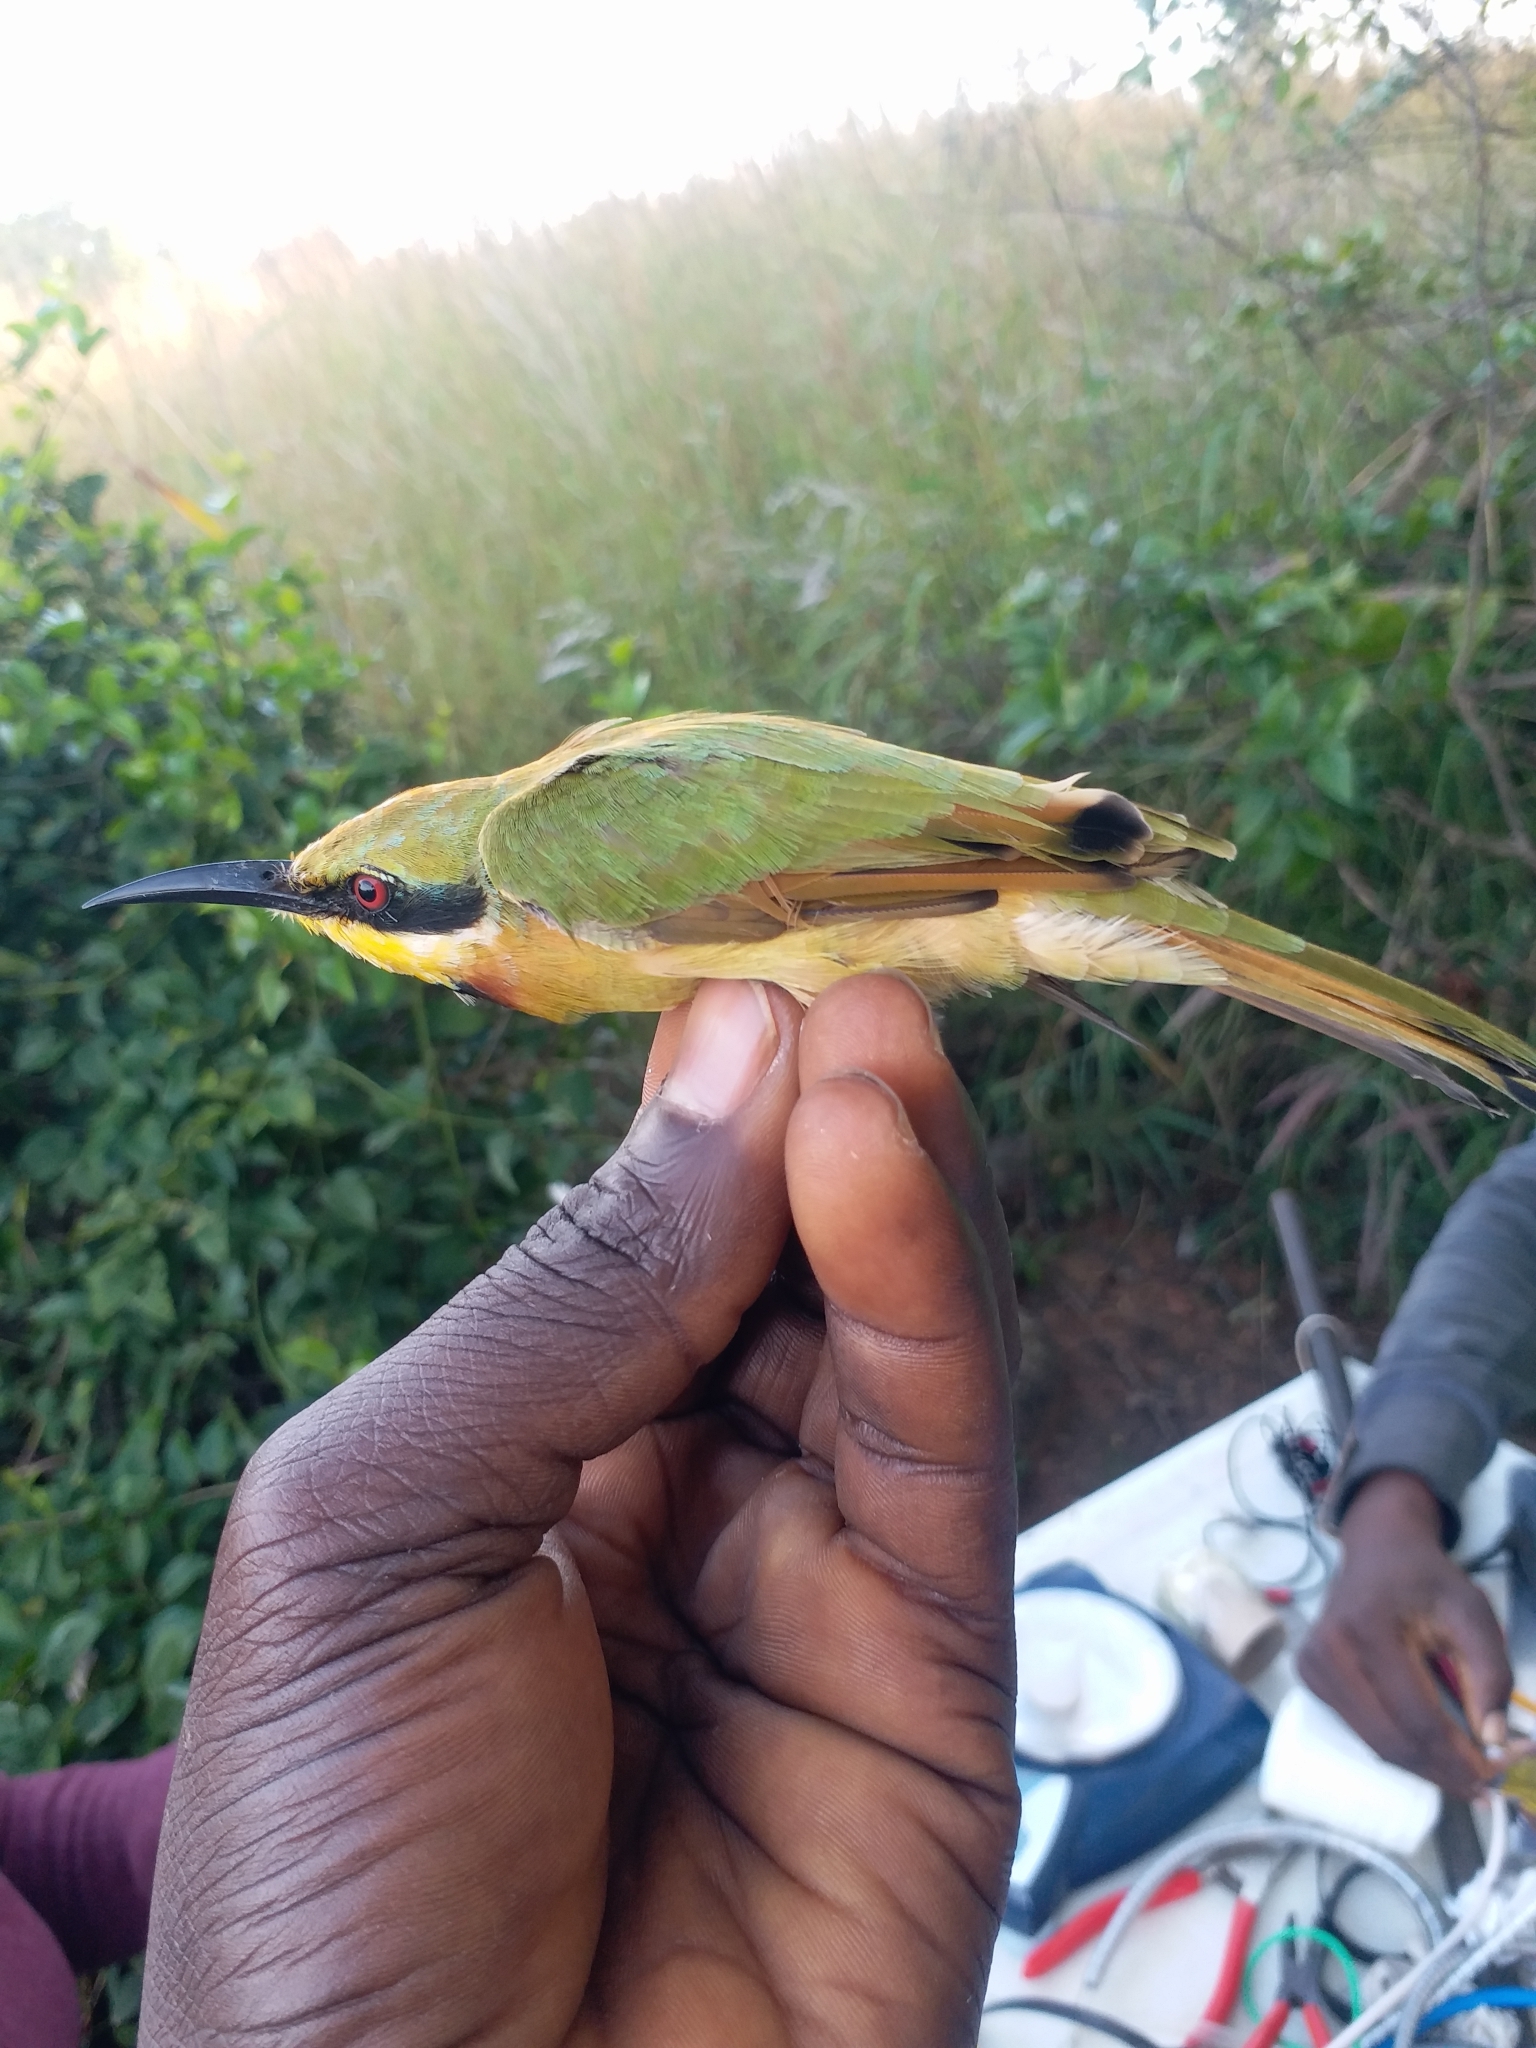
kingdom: Animalia
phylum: Chordata
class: Aves
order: Coraciiformes
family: Meropidae
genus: Merops
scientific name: Merops pusillus
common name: Little bee-eater
